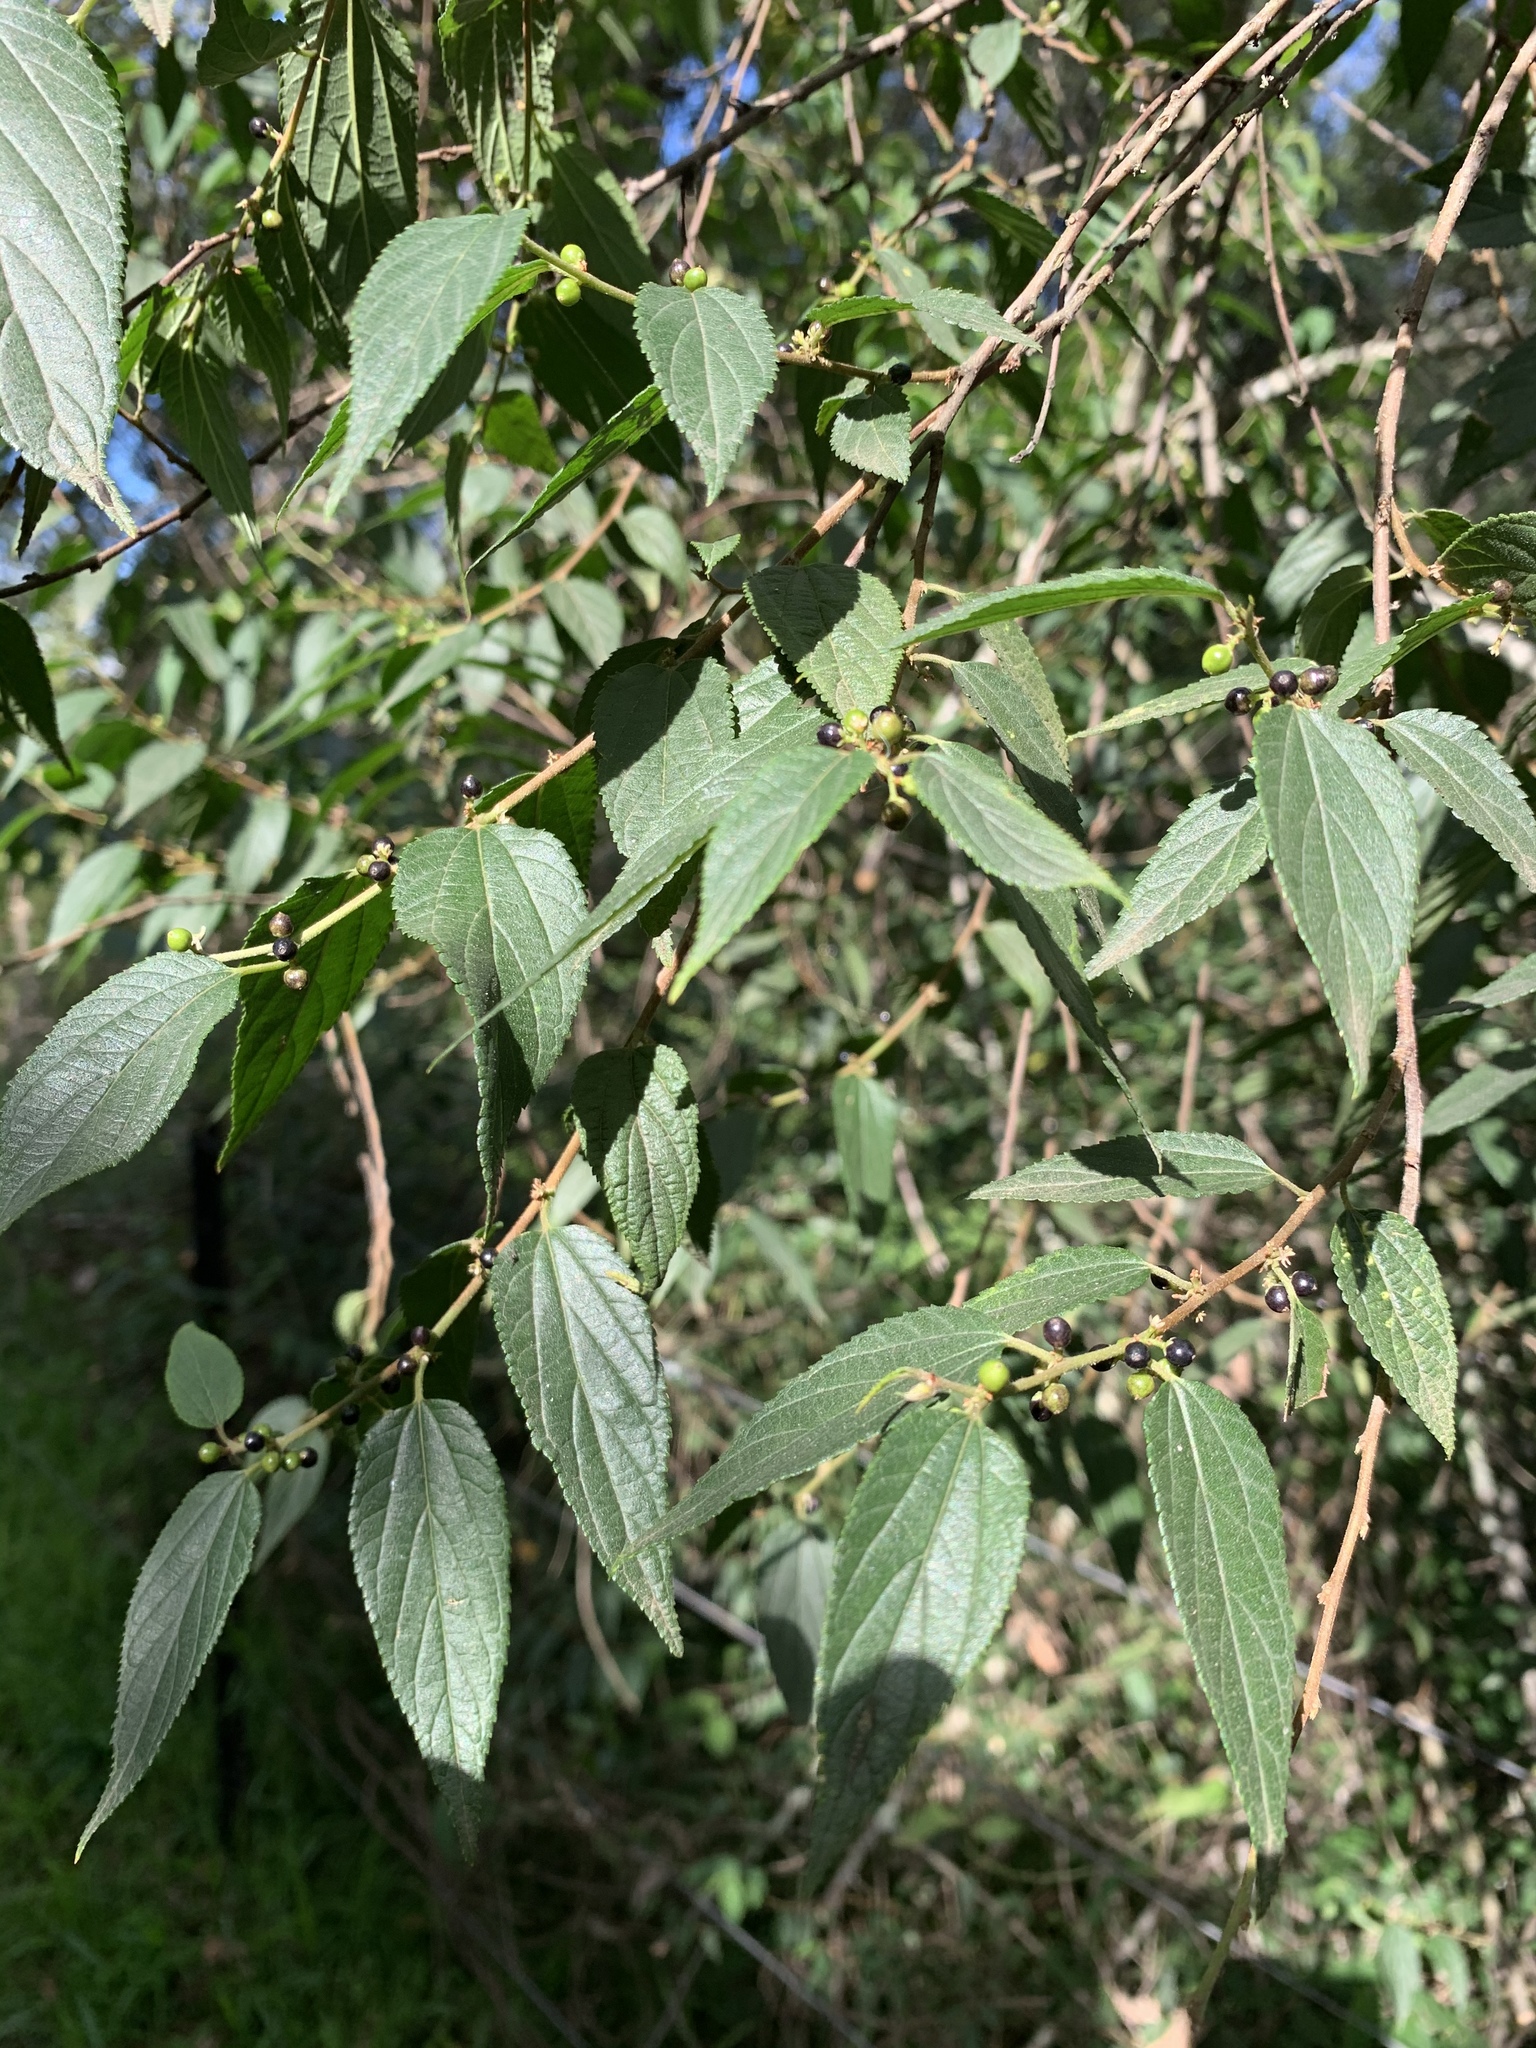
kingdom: Plantae
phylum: Tracheophyta
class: Magnoliopsida
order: Rosales
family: Cannabaceae
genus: Trema
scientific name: Trema tomentosum
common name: Peach-leaf-poisonbush
